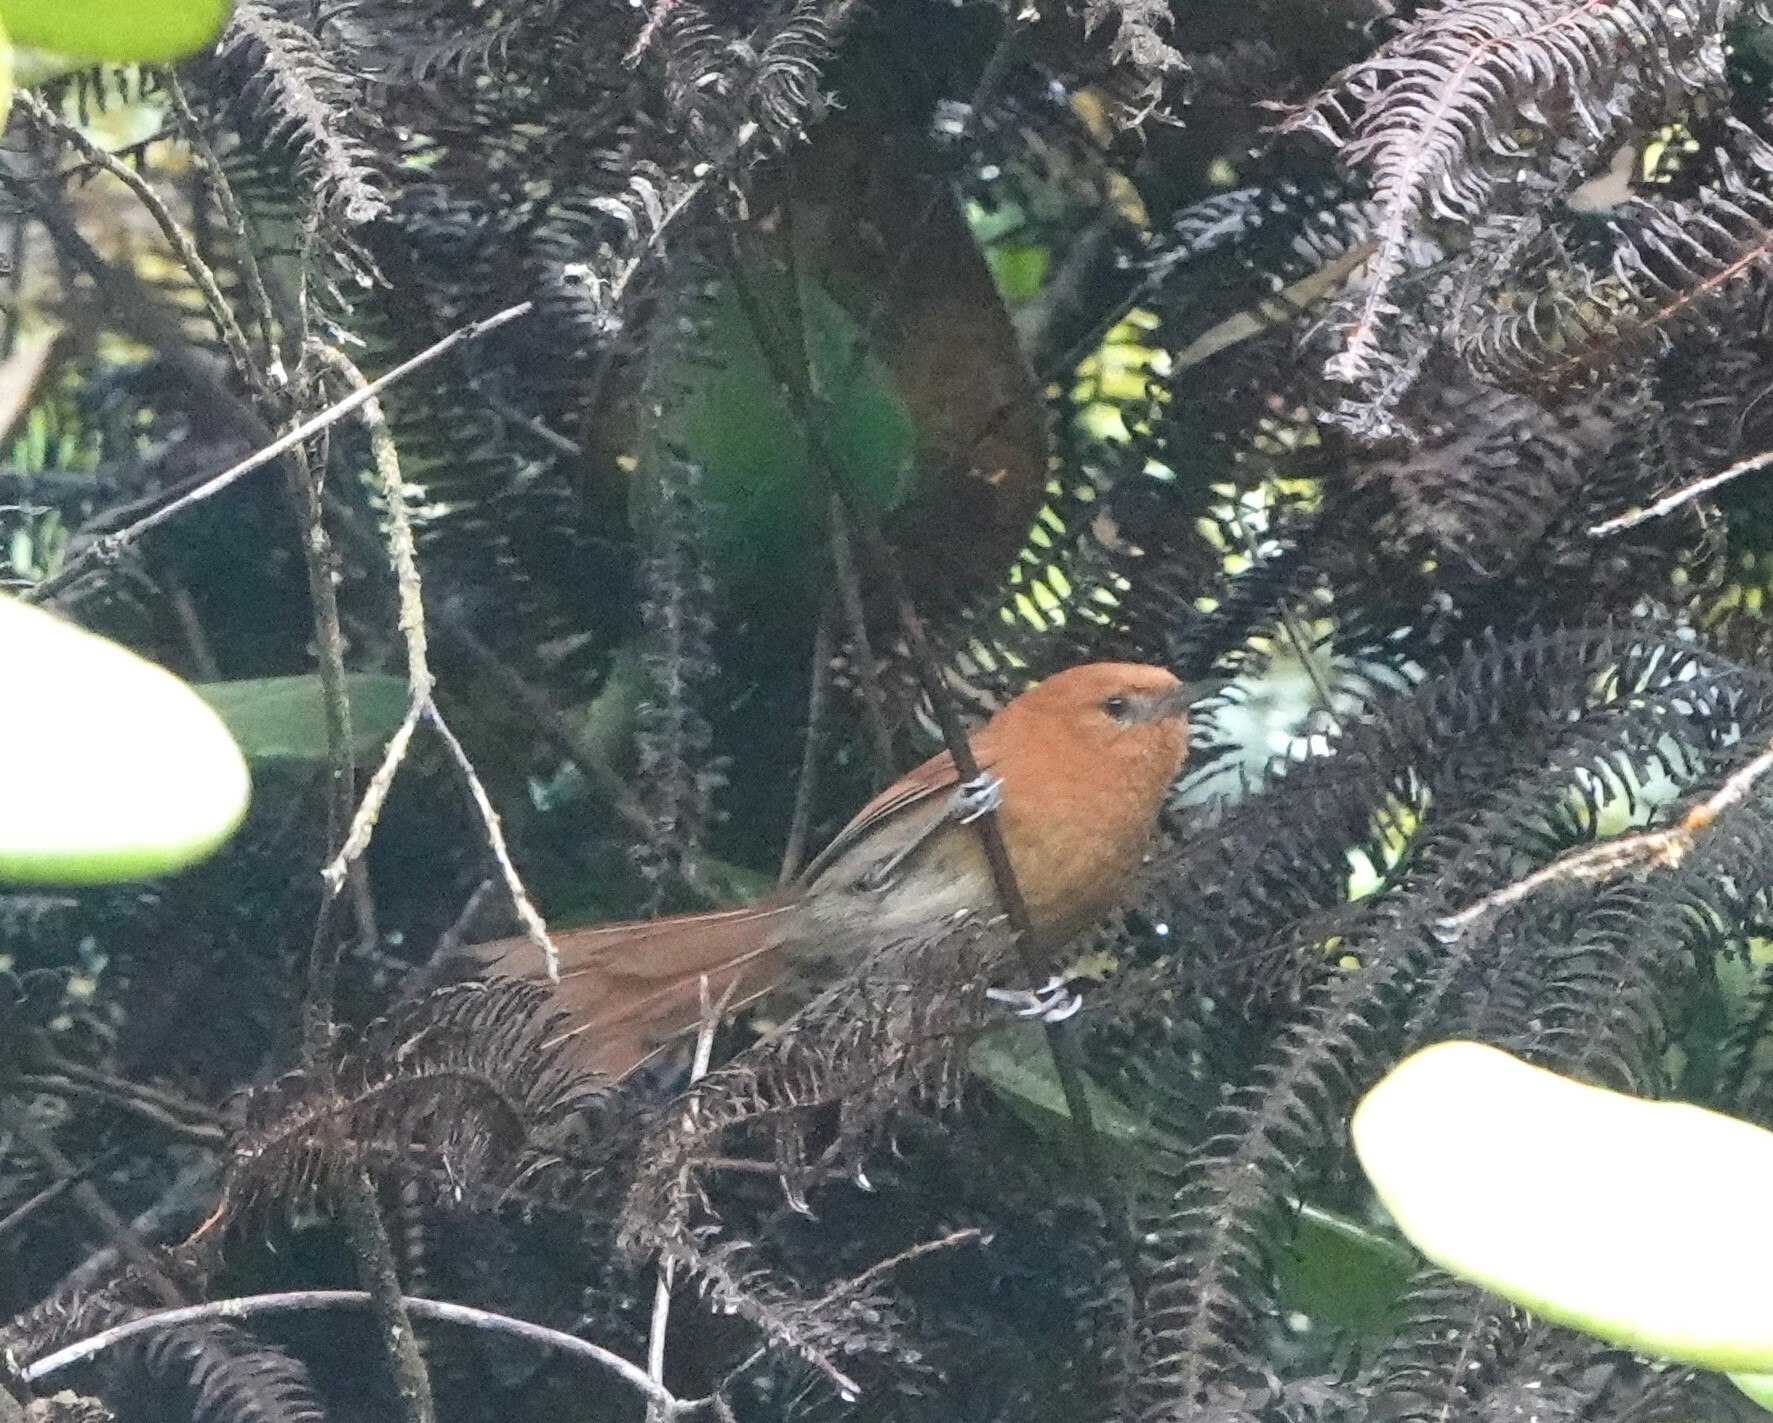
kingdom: Animalia
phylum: Chordata
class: Aves
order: Passeriformes
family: Furnariidae
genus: Synallaxis
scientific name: Synallaxis fuscorufa
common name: Rusty-headed spinetail
